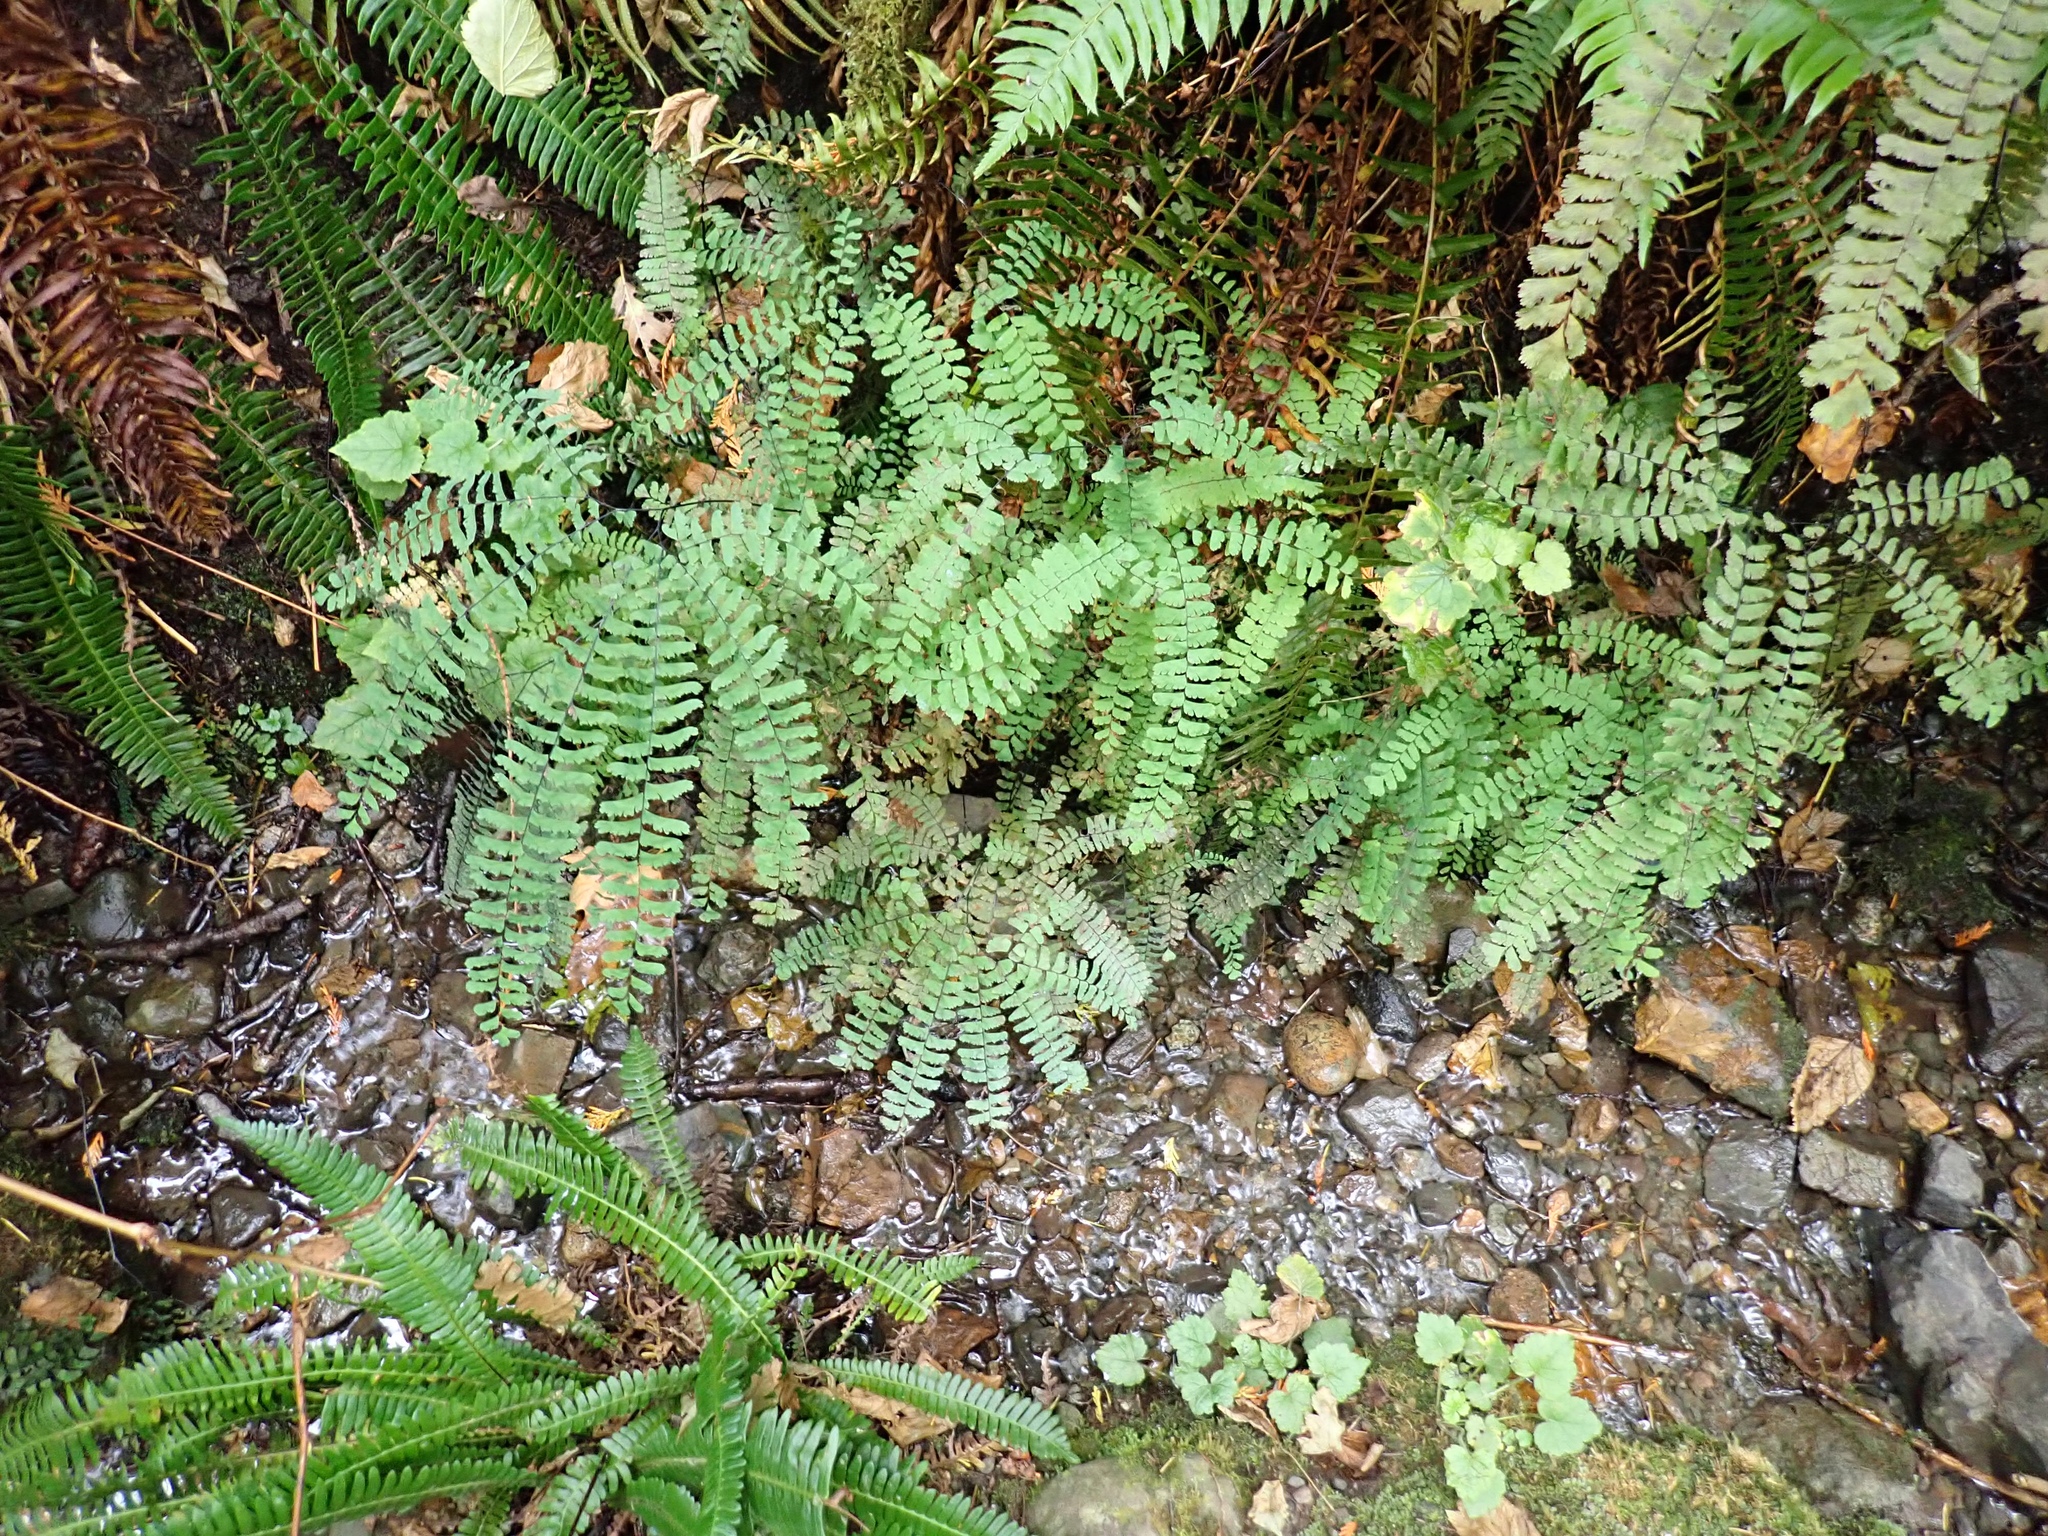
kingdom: Plantae
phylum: Tracheophyta
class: Polypodiopsida
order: Polypodiales
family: Pteridaceae
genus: Adiantum
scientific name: Adiantum aleuticum
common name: Aleutian maidenhair fern
